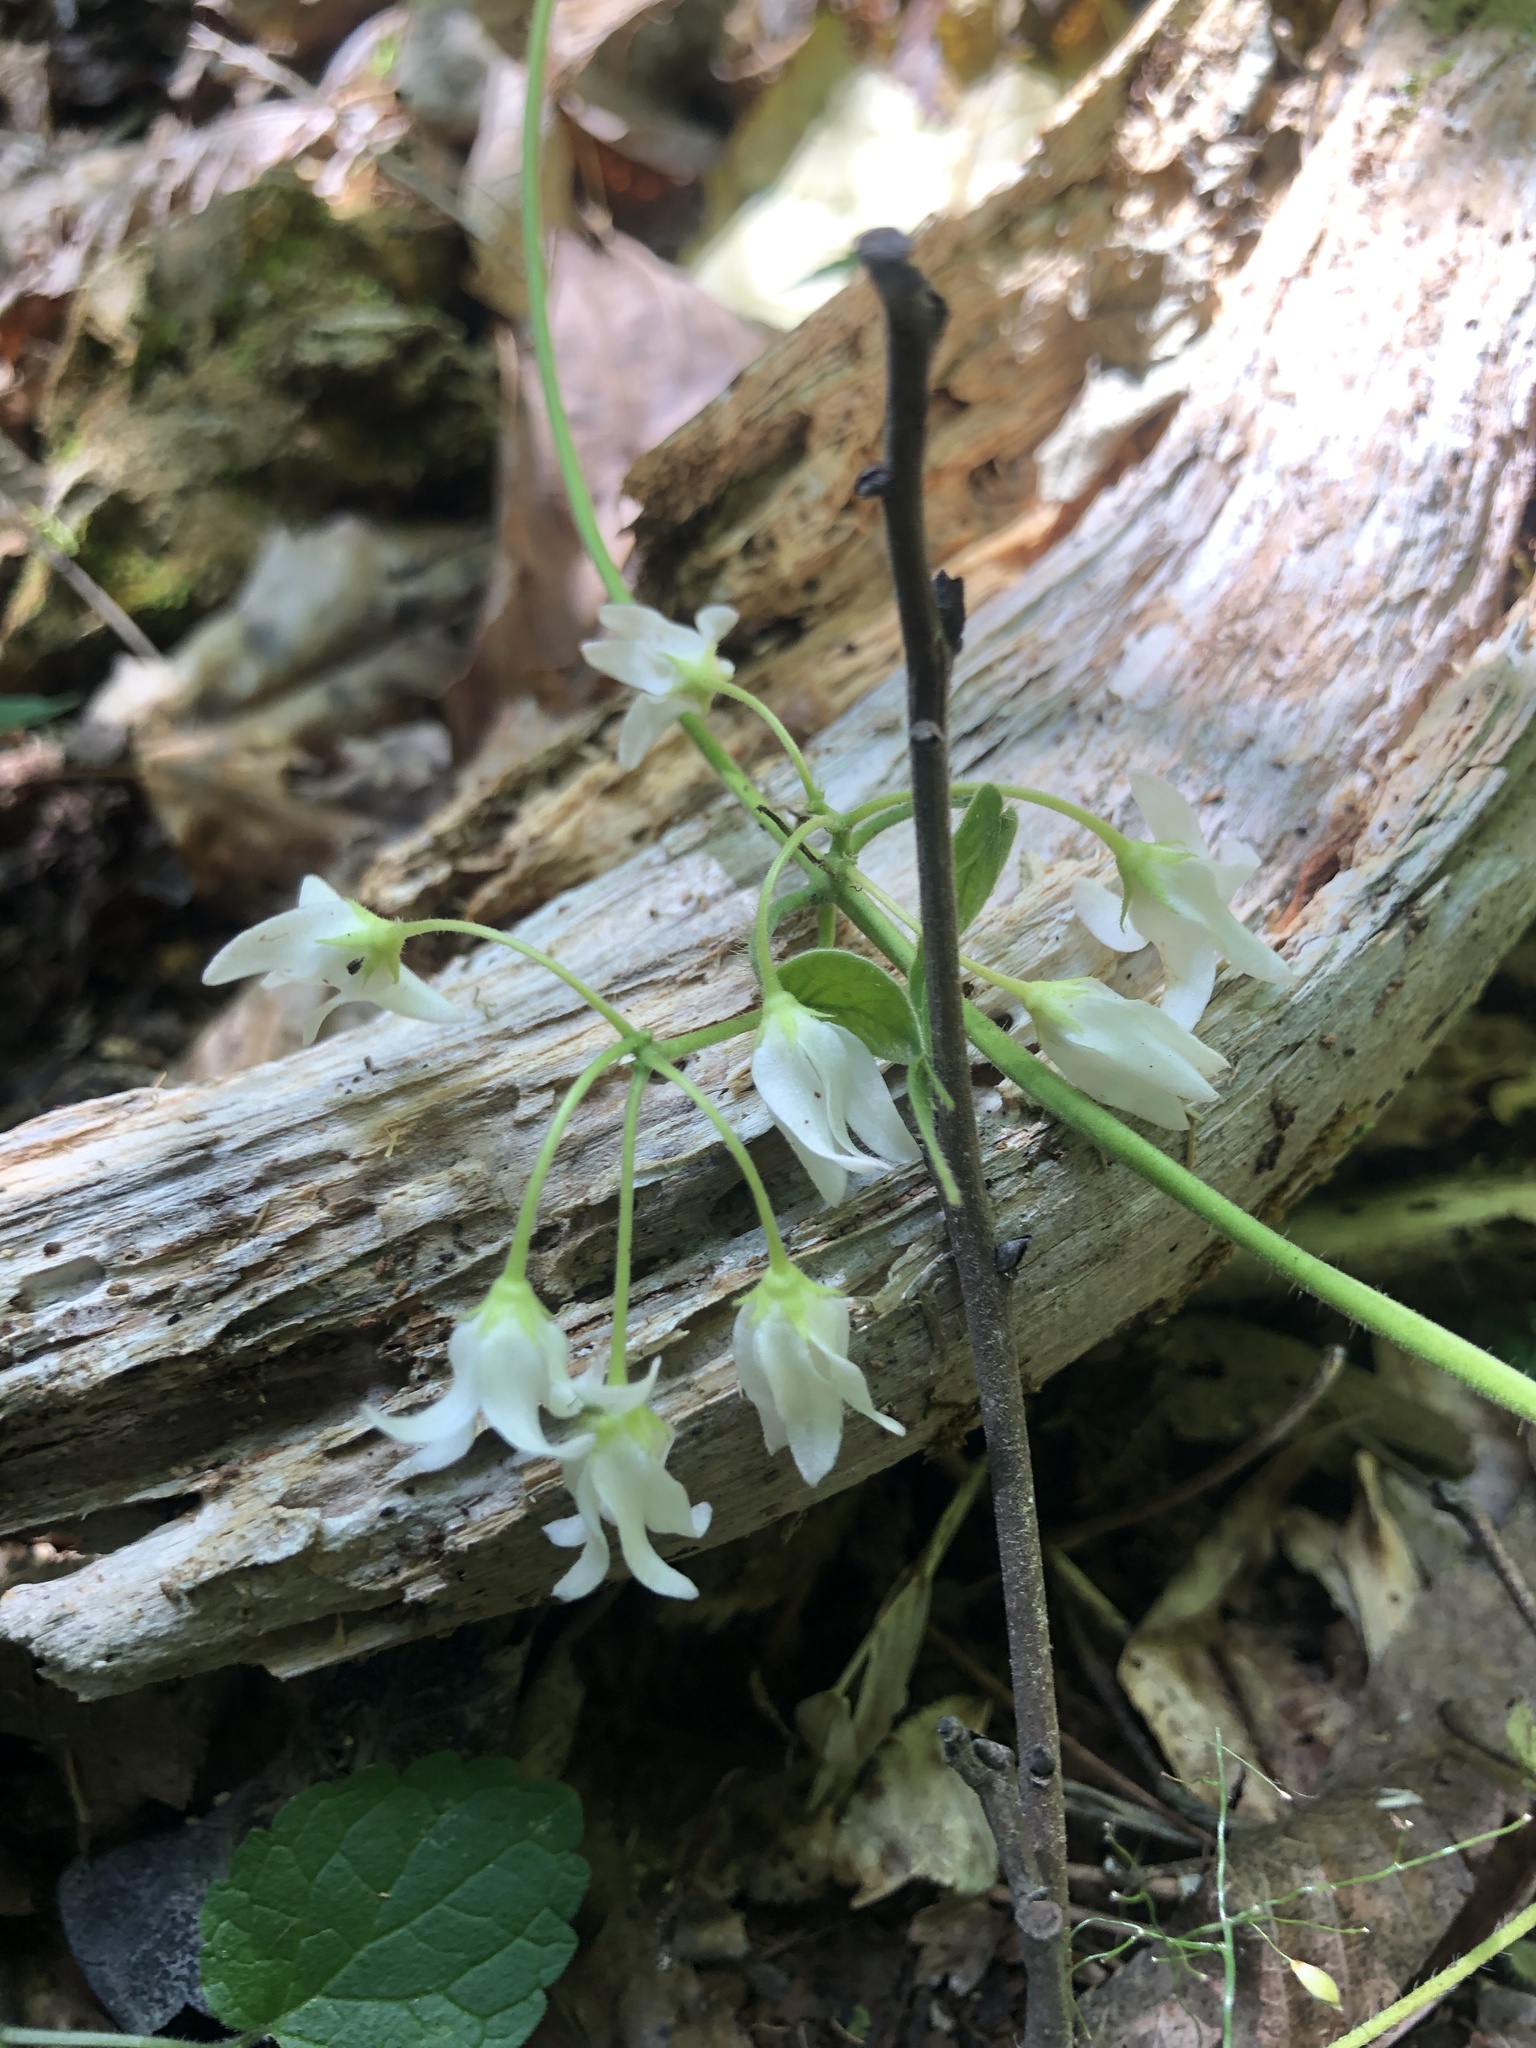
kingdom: Plantae
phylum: Tracheophyta
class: Magnoliopsida
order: Gentianales
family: Apocynaceae
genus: Matelea
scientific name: Matelea baldwyniana
